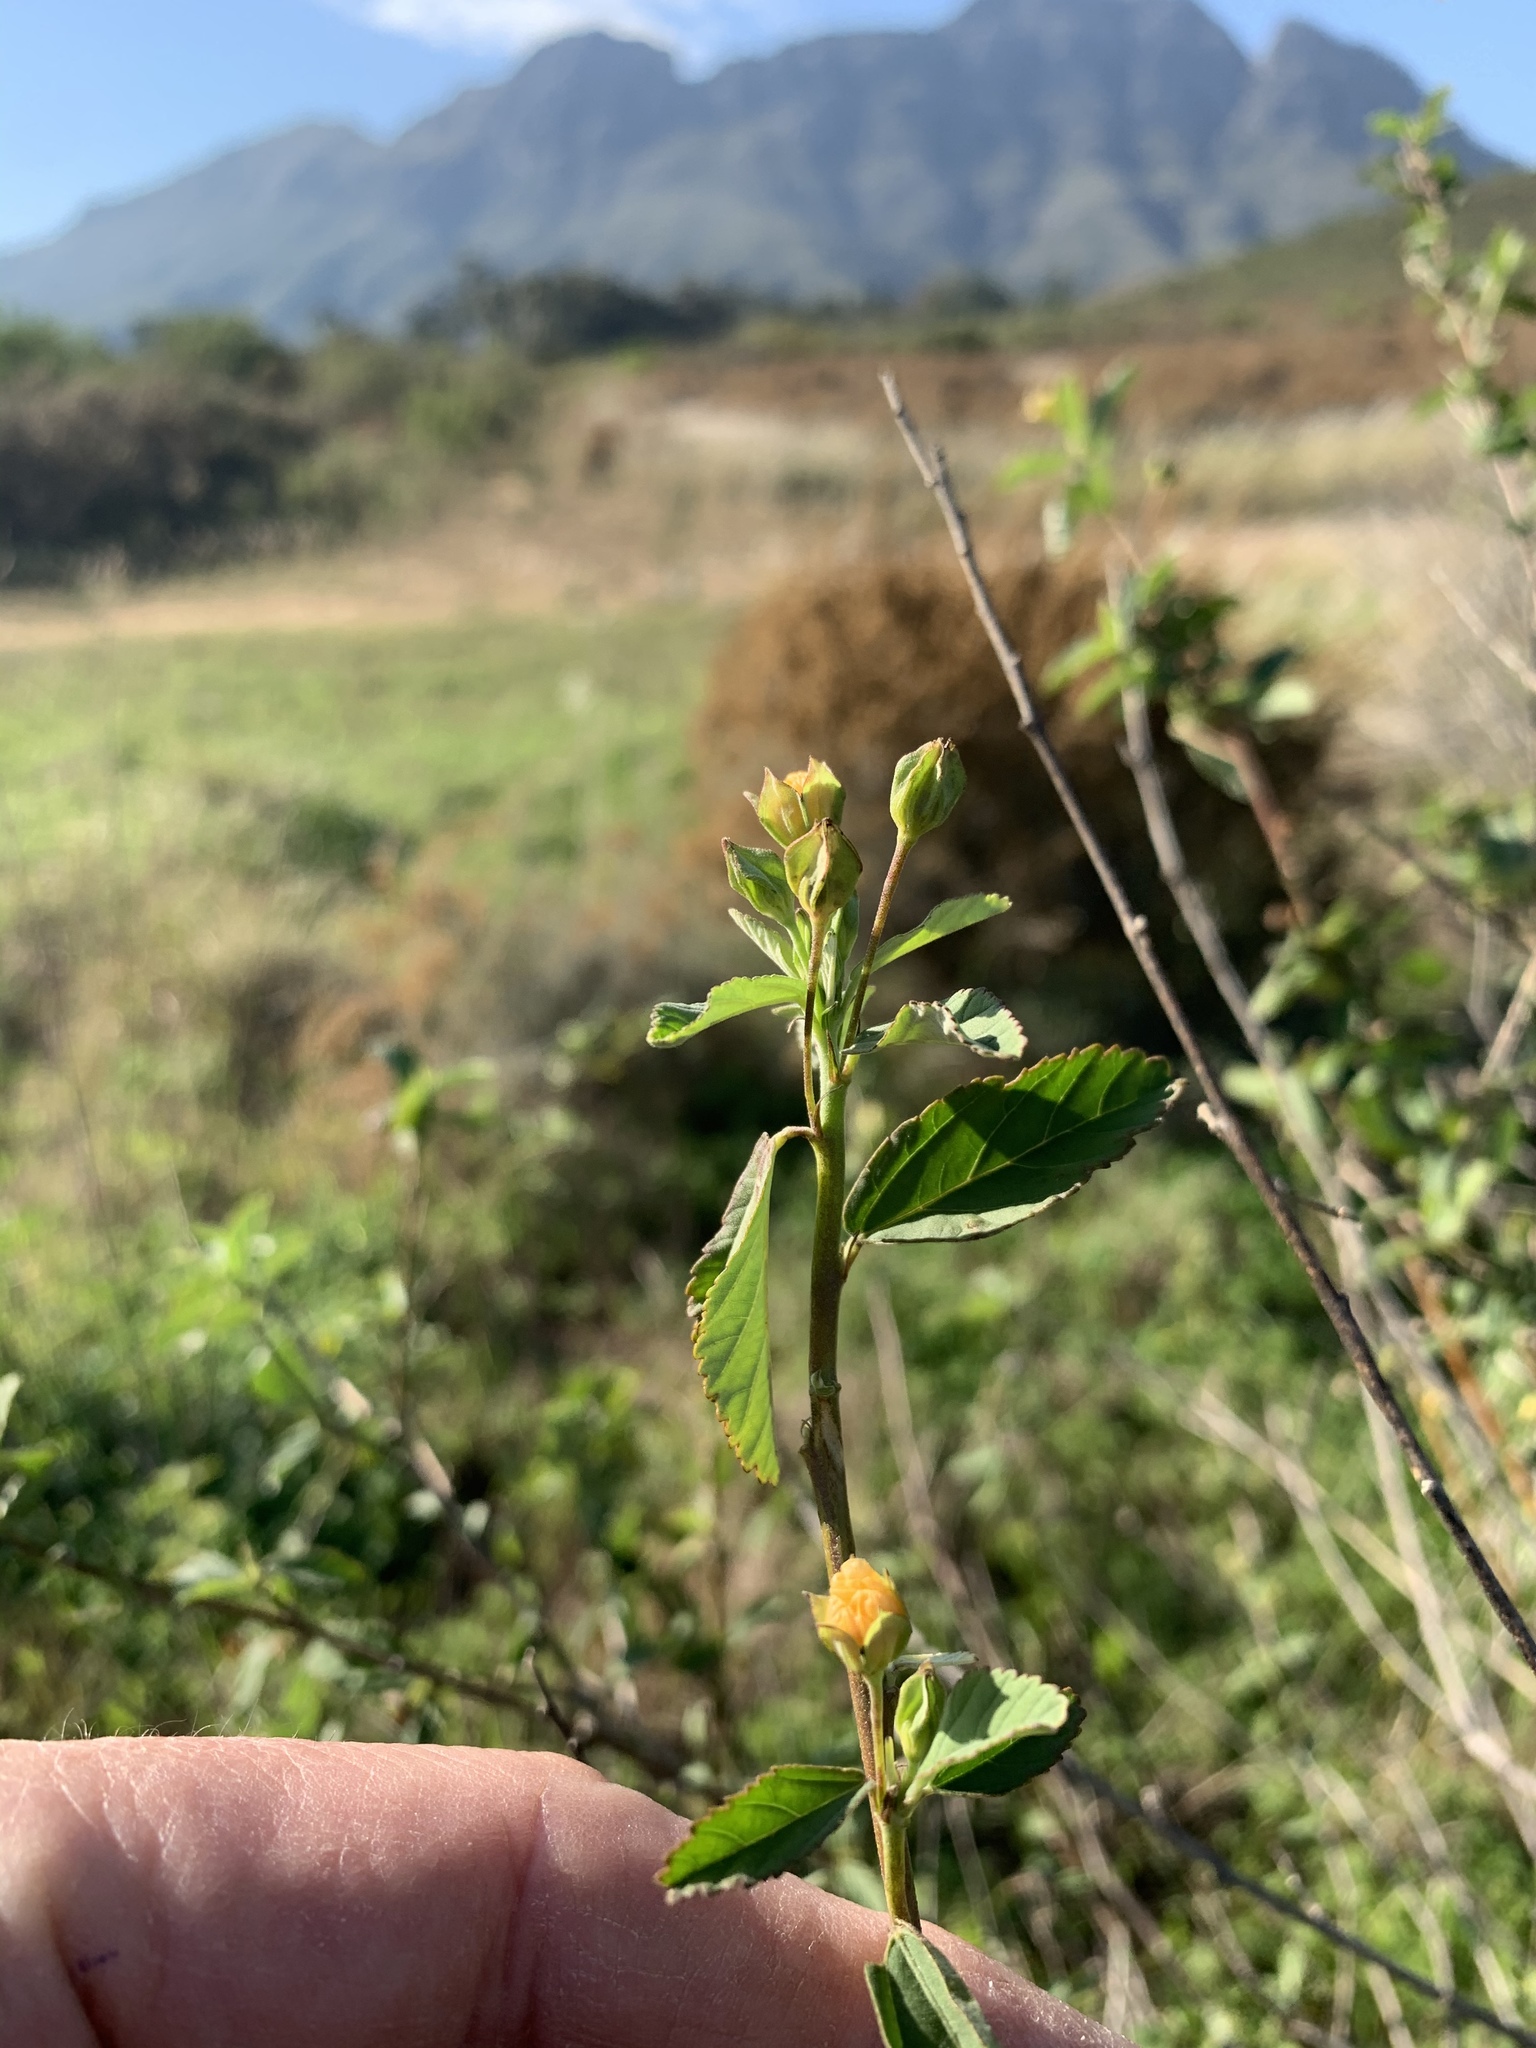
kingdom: Plantae
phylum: Tracheophyta
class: Magnoliopsida
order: Malvales
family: Malvaceae
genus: Sida
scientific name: Sida rhombifolia
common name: Queensland-hemp
